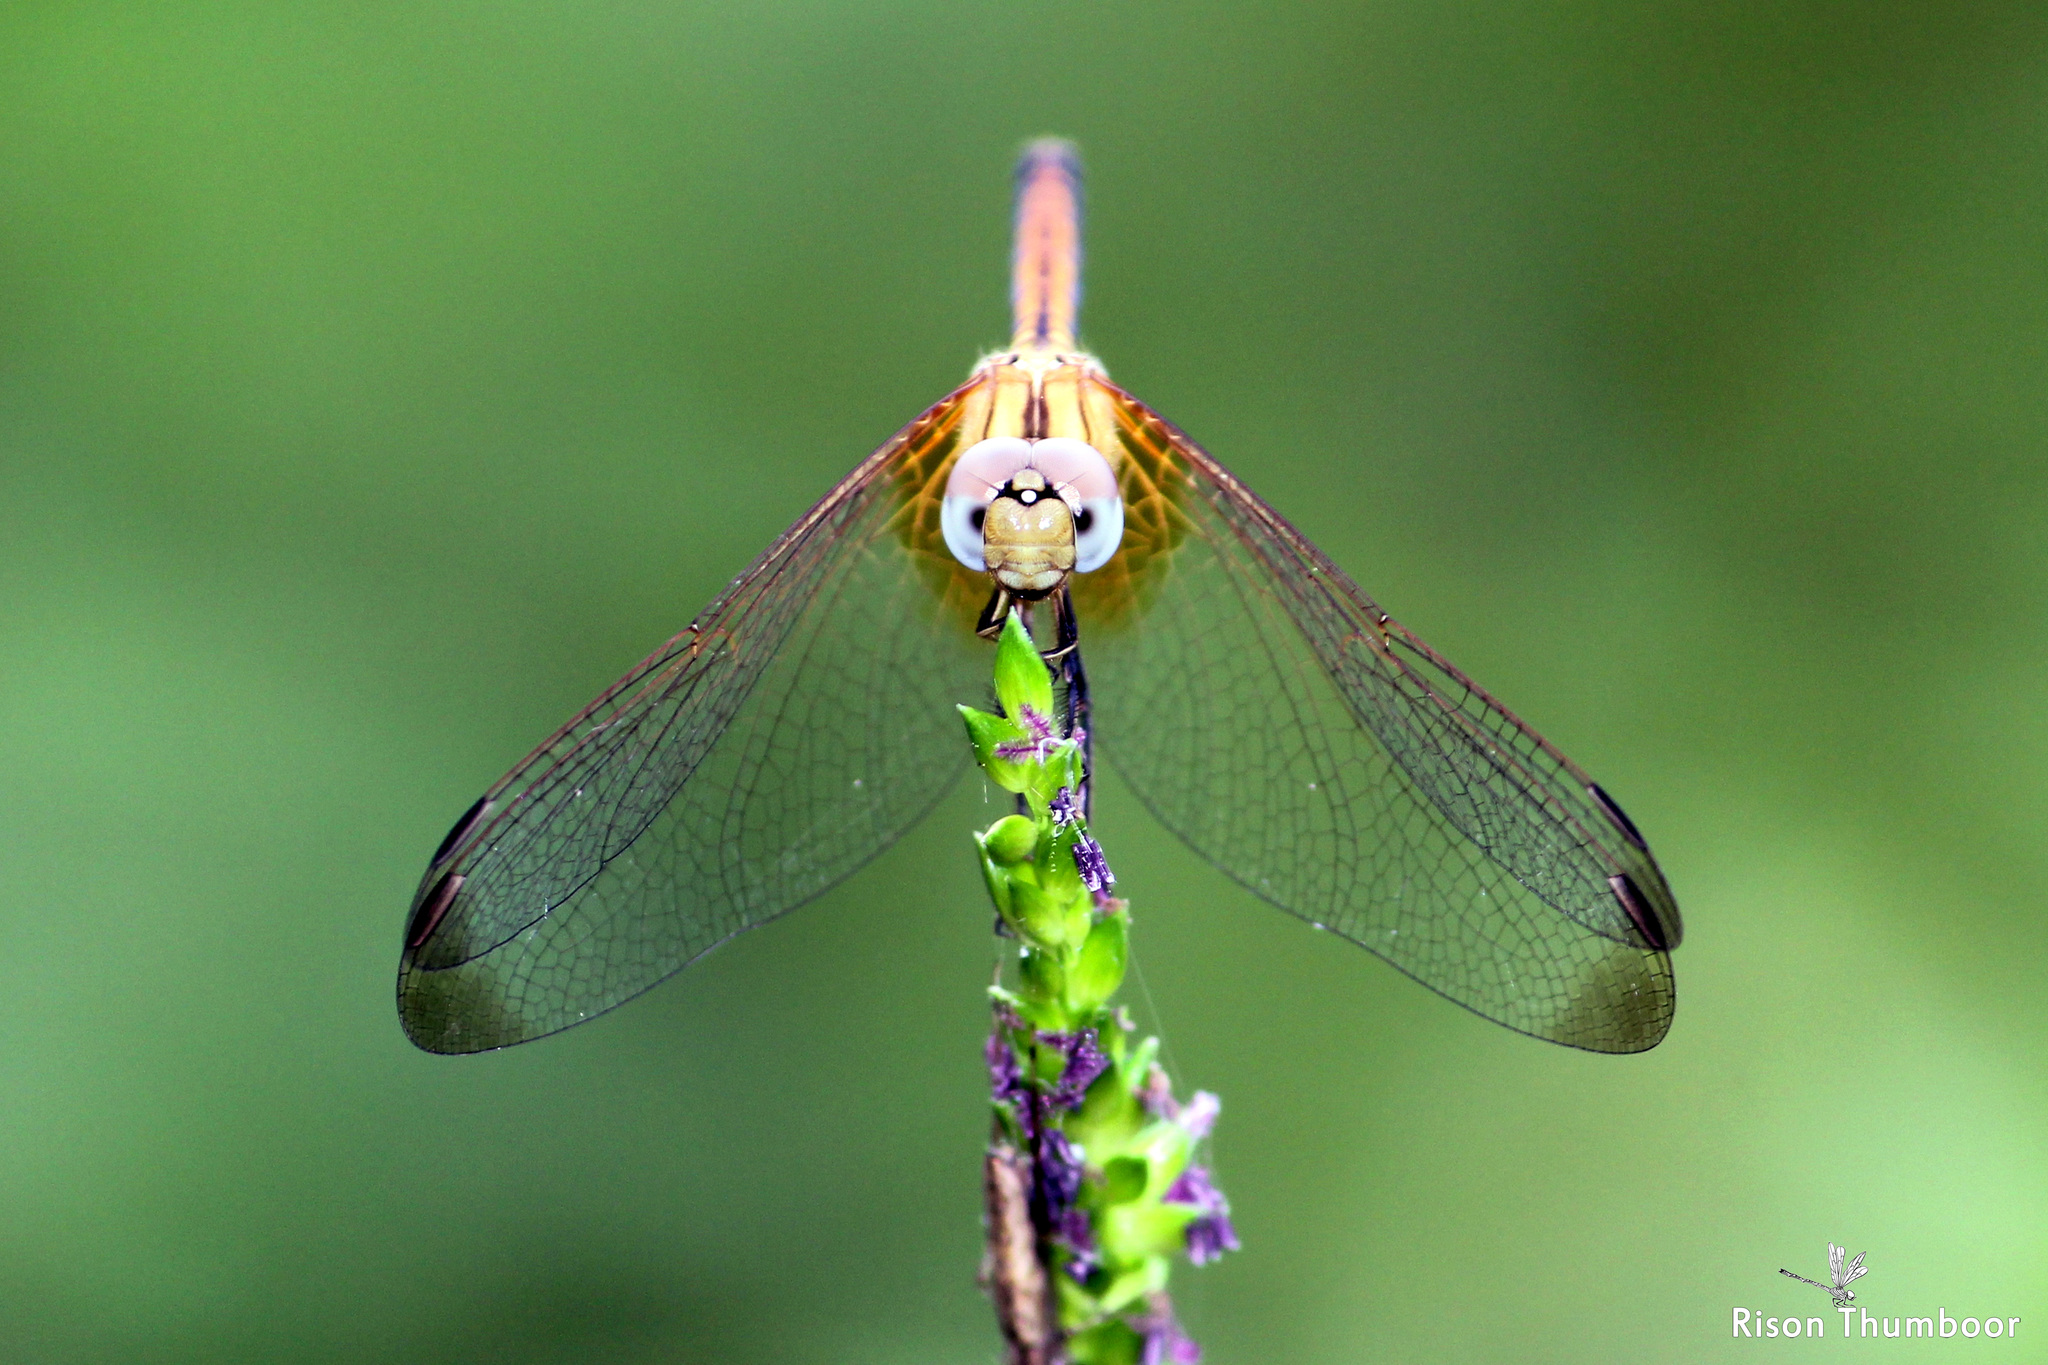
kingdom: Animalia
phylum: Arthropoda
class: Insecta
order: Odonata
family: Libellulidae
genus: Trithemis
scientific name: Trithemis aurora
